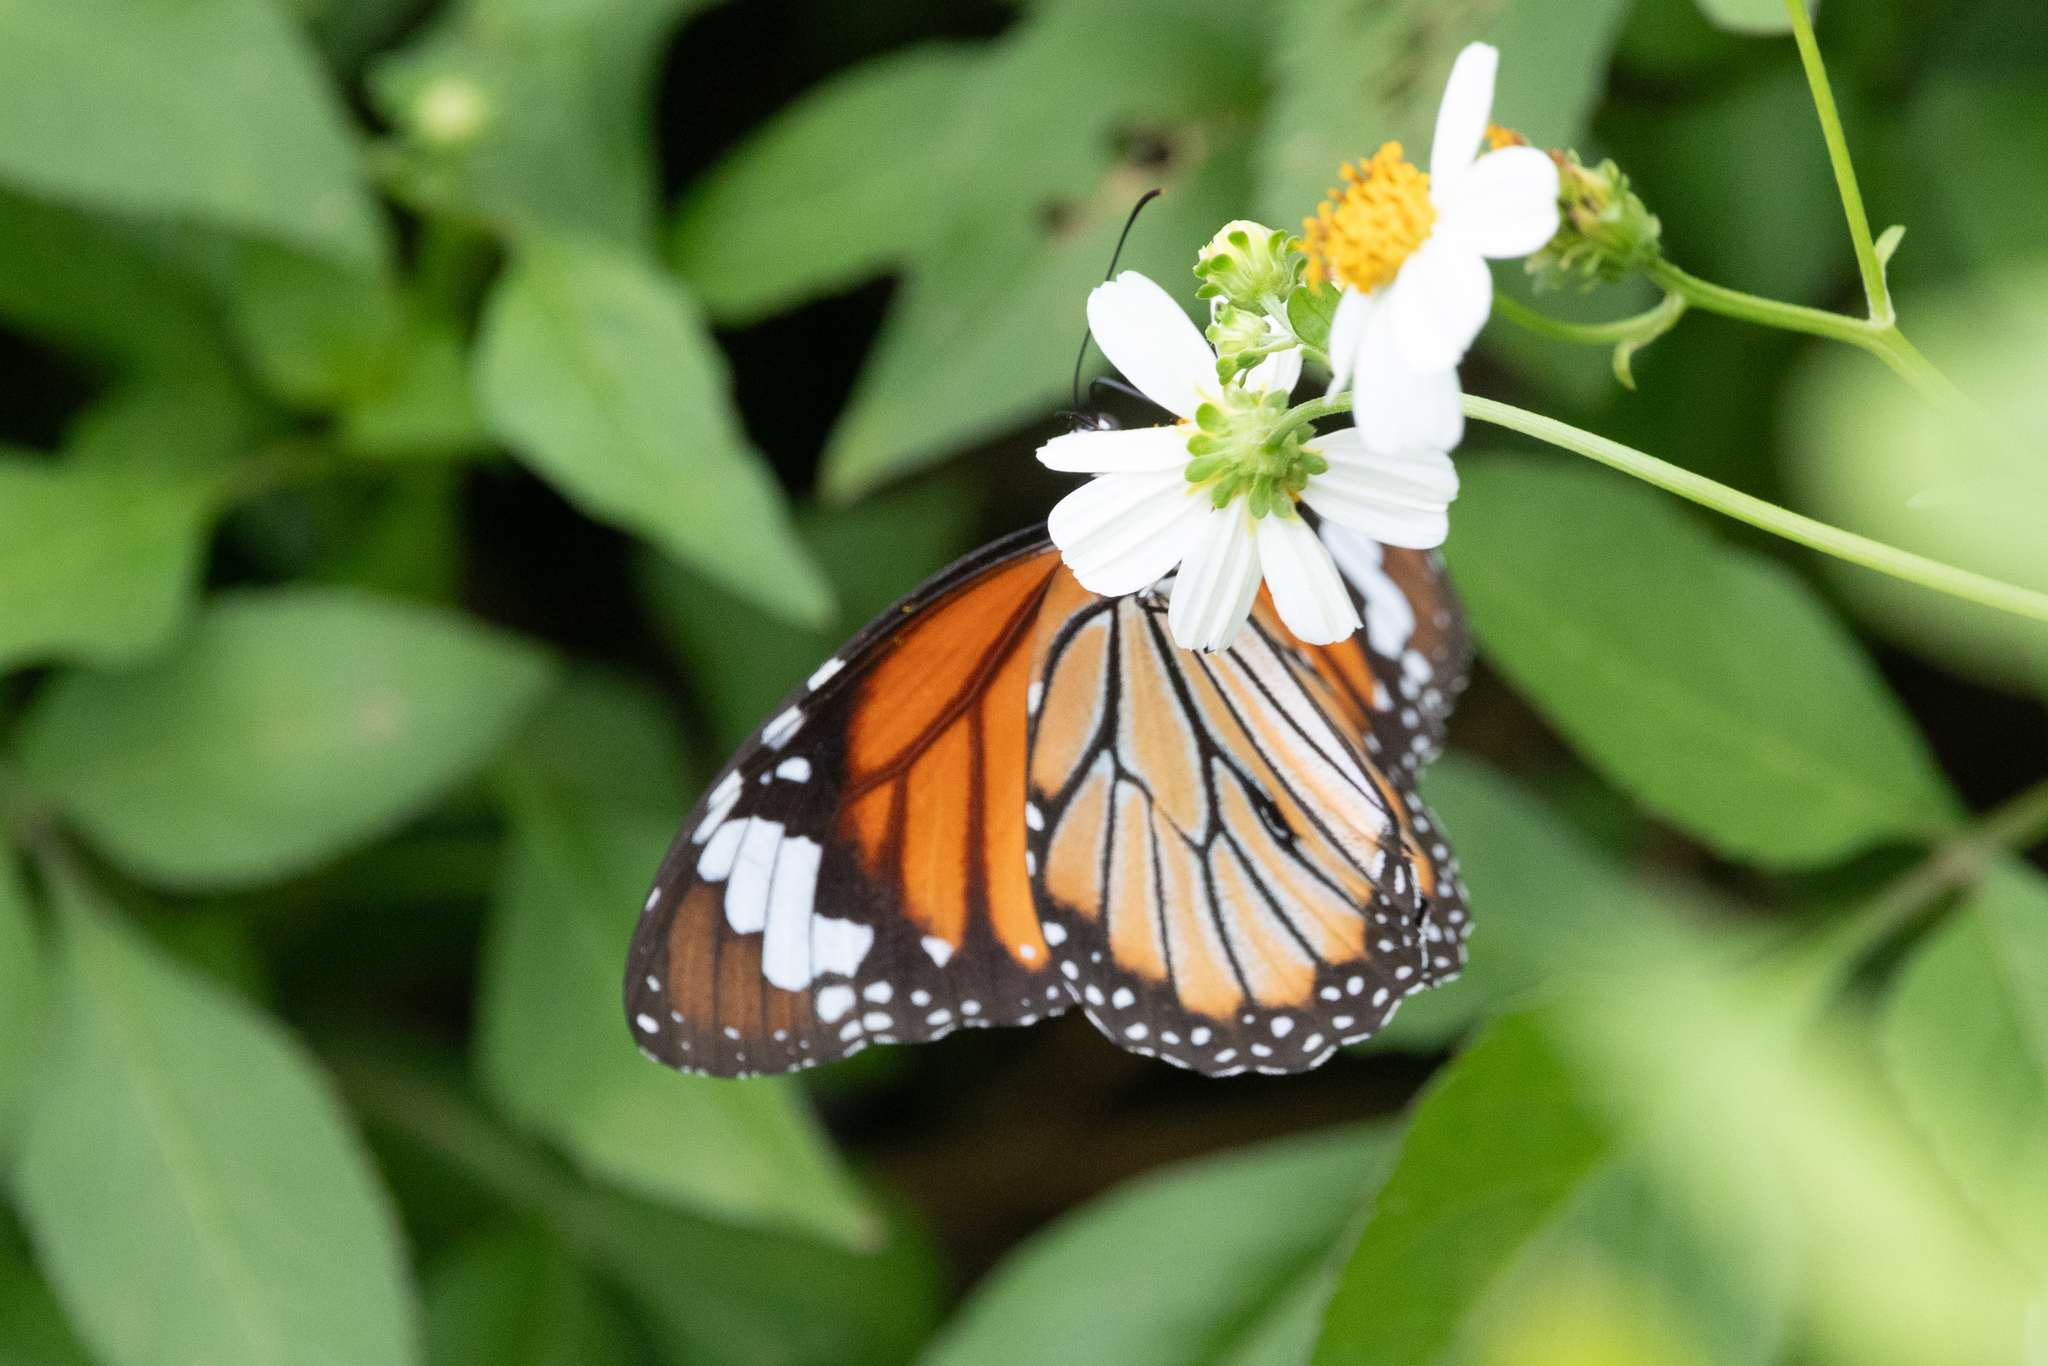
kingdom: Animalia
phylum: Arthropoda
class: Insecta
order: Lepidoptera
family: Nymphalidae
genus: Danaus
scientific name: Danaus genutia
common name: Common tiger butterfly
